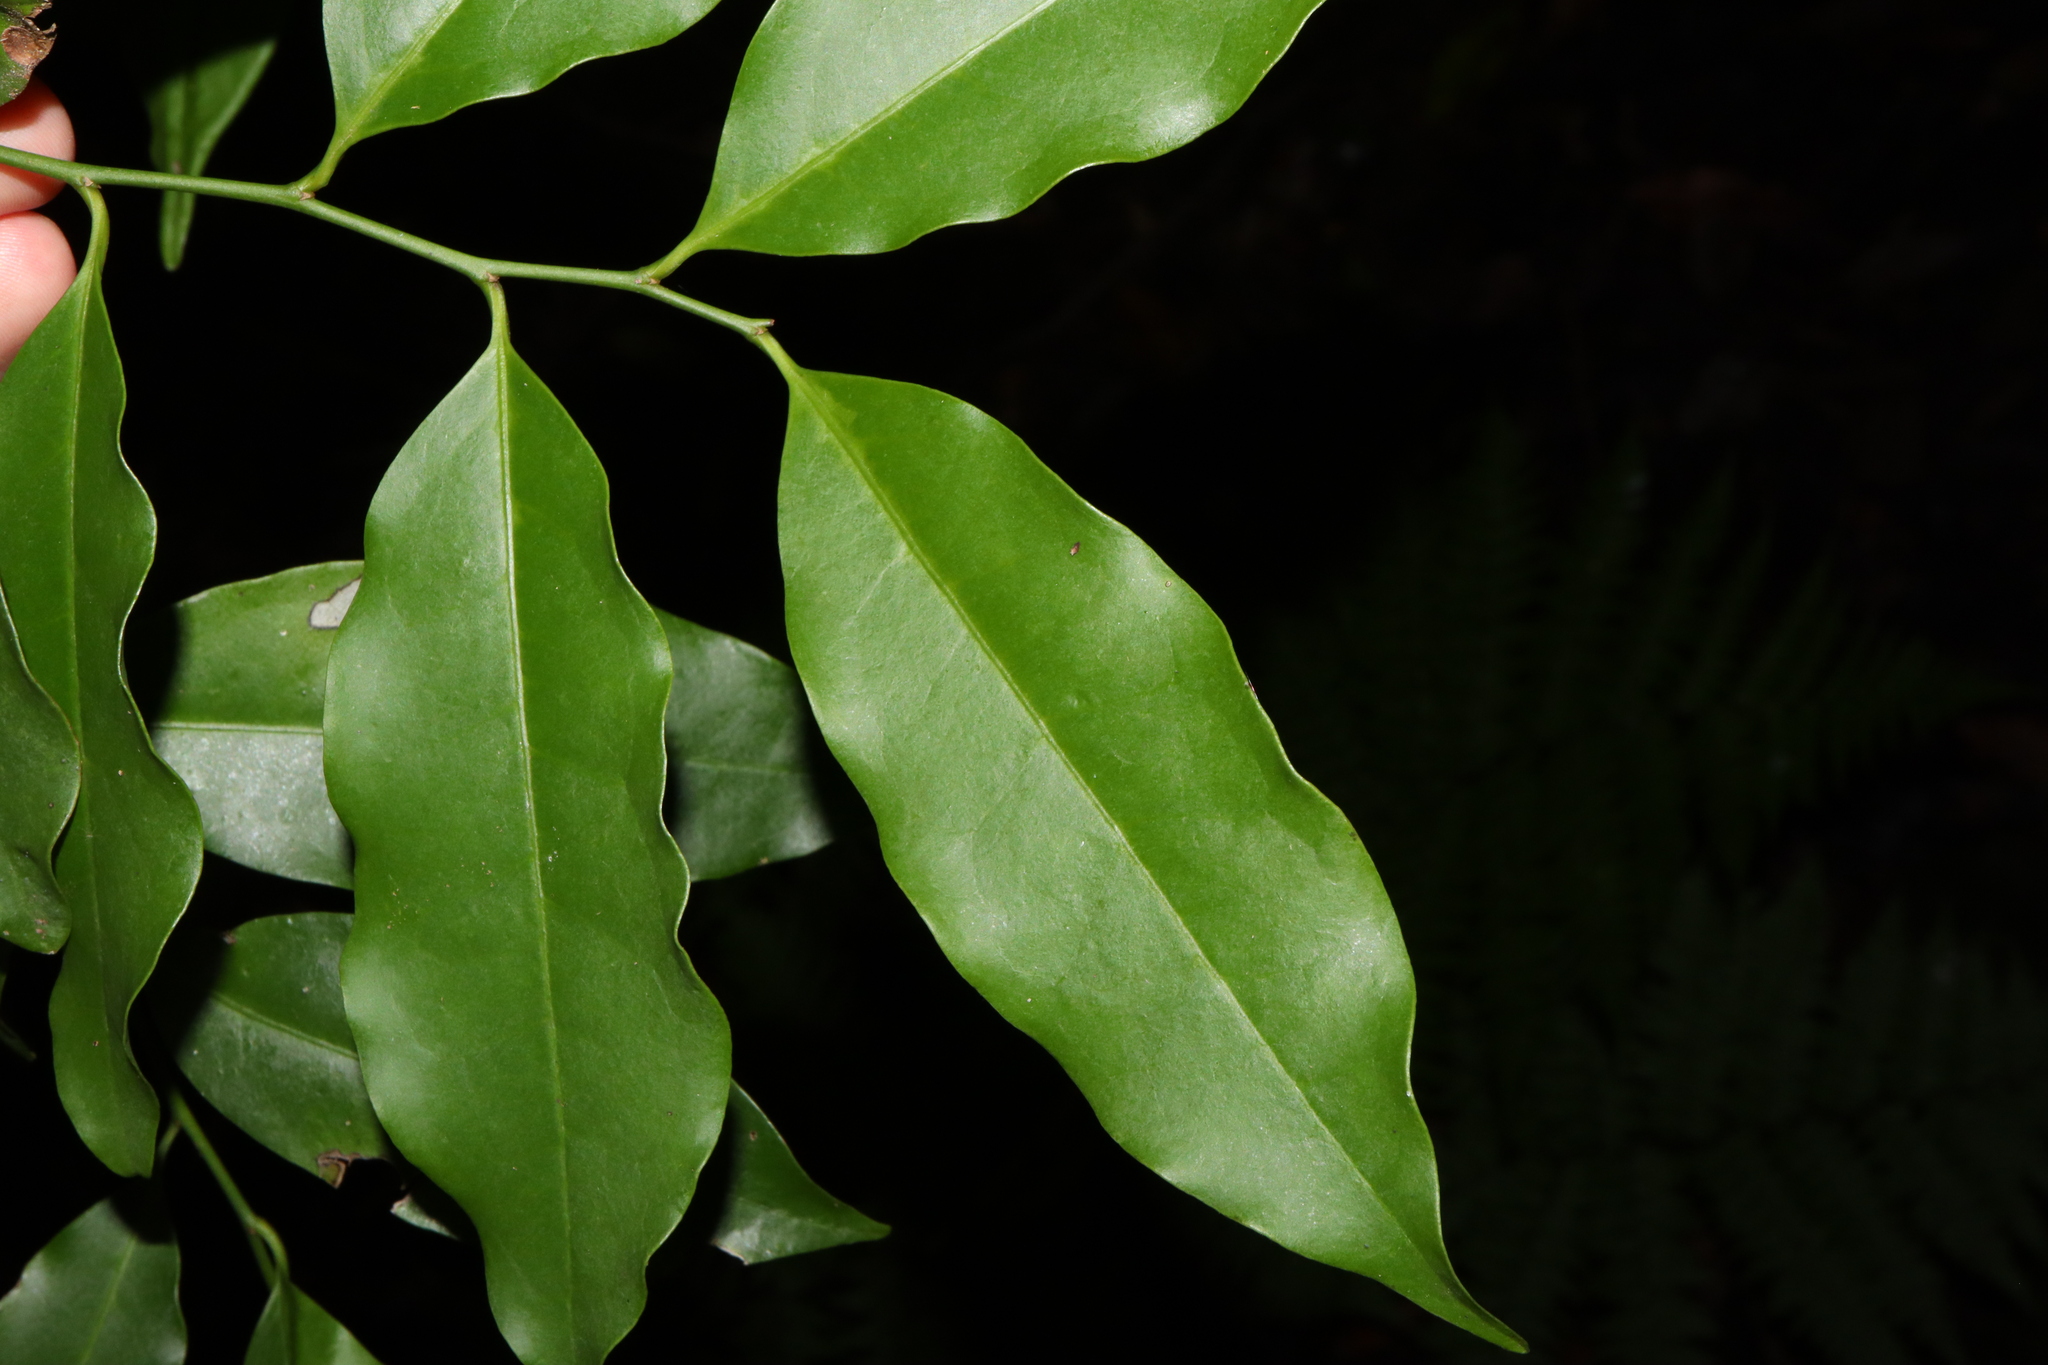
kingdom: Plantae
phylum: Tracheophyta
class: Magnoliopsida
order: Fabales
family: Surianaceae
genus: Guilfoylia
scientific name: Guilfoylia monostylis
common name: Scrub ooline
